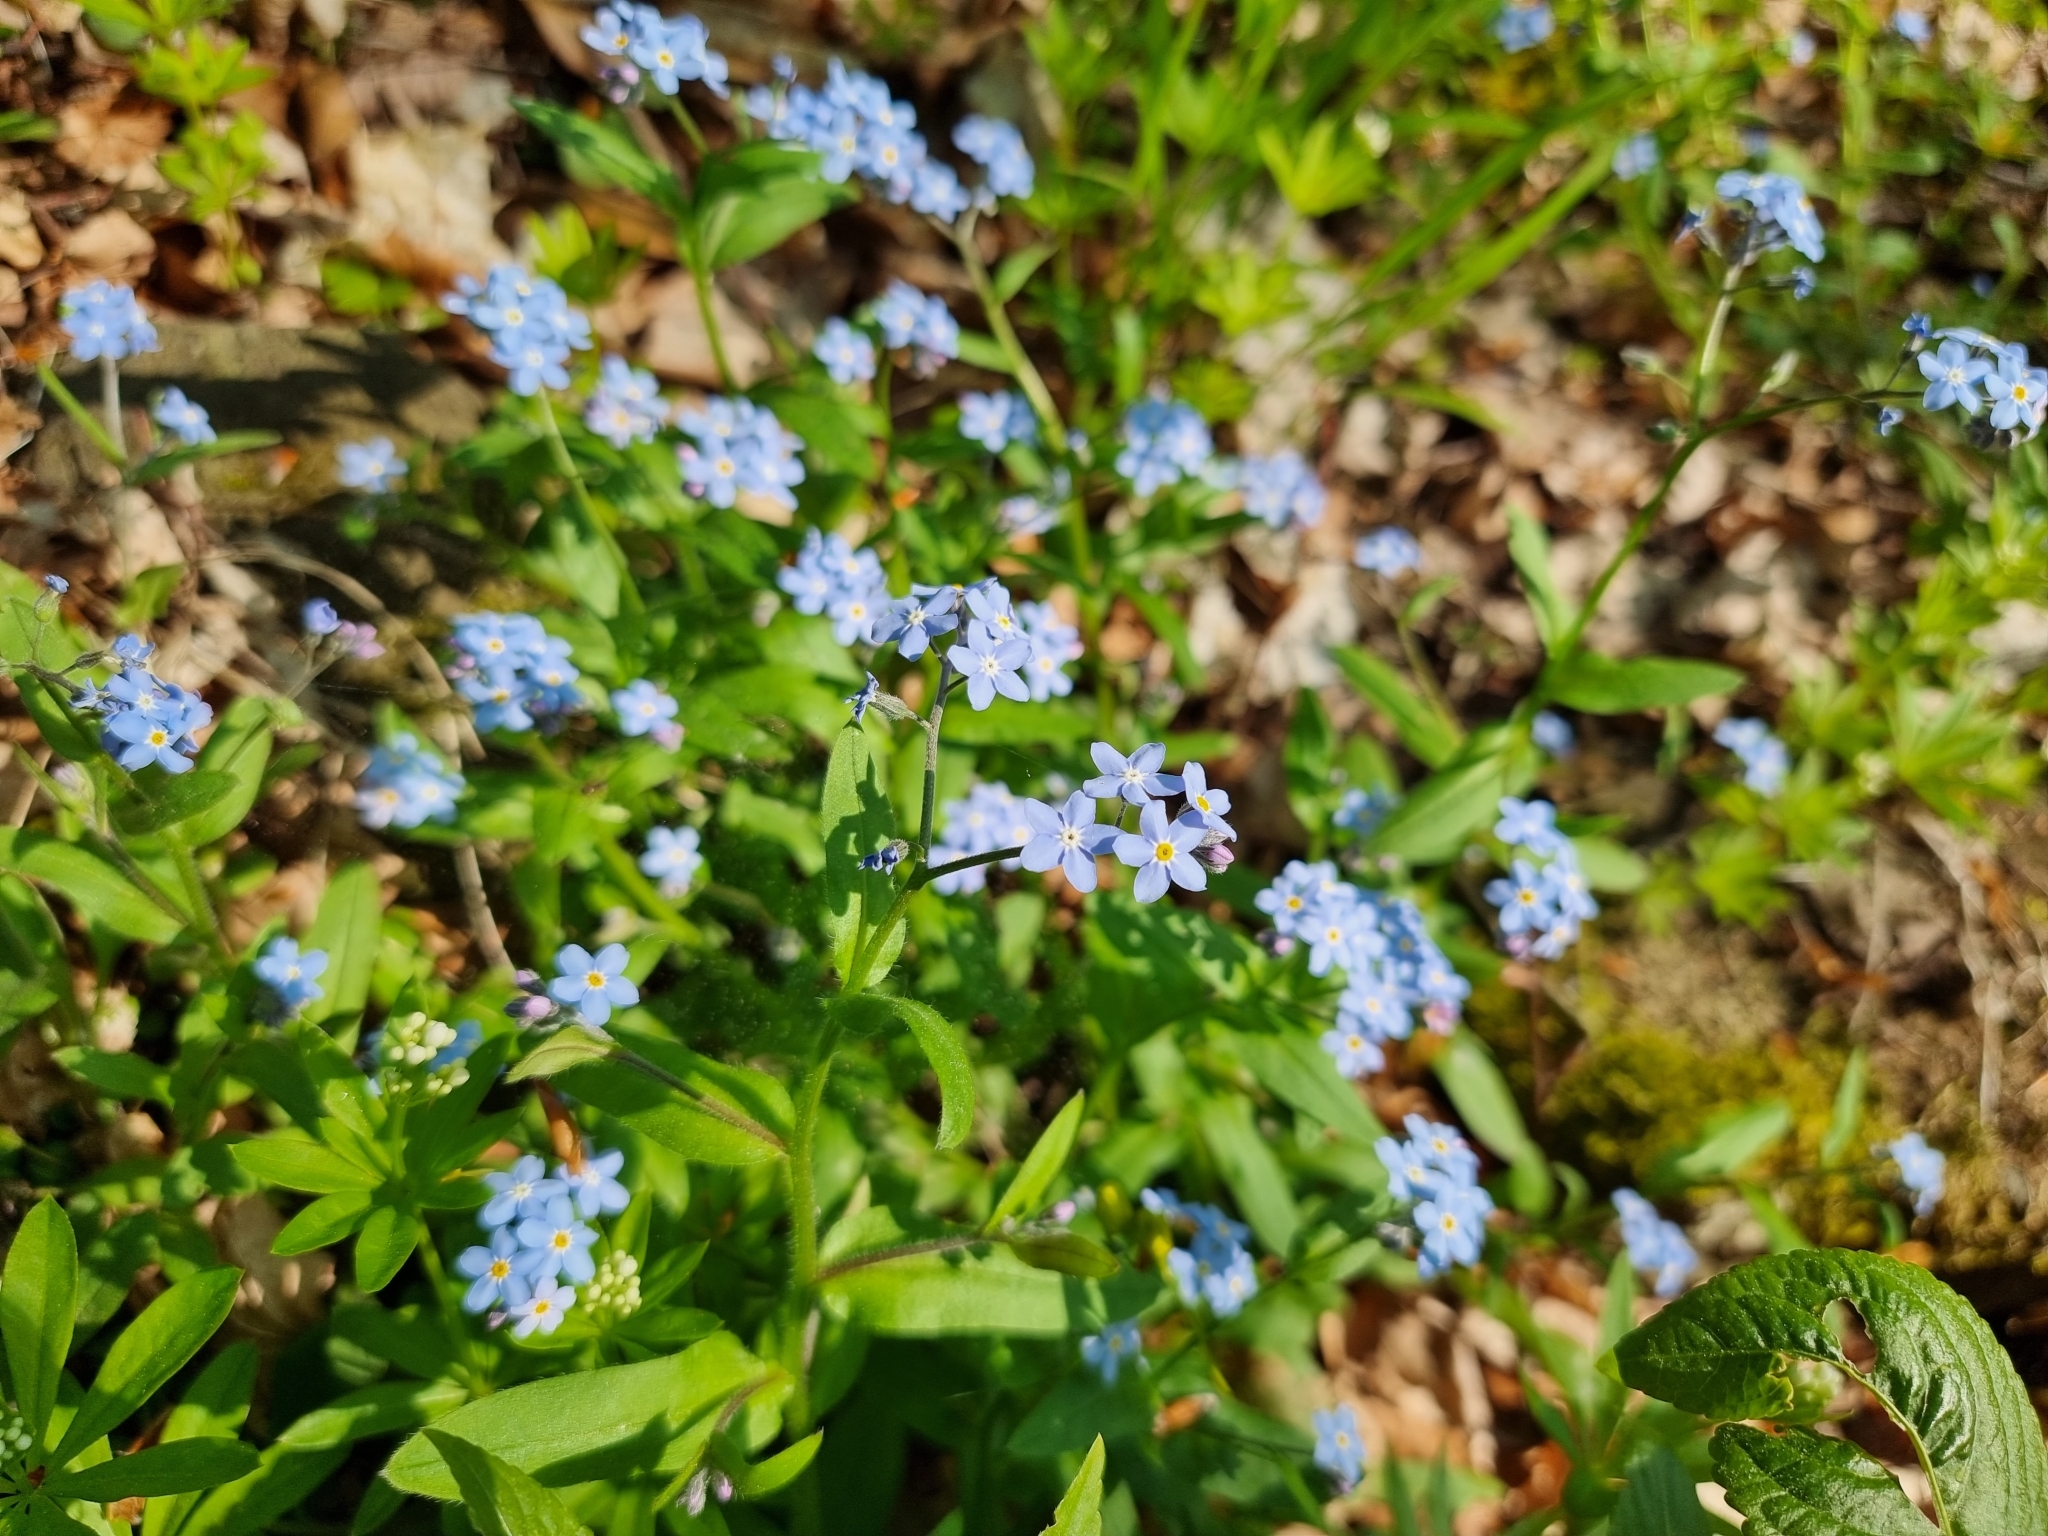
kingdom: Plantae
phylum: Tracheophyta
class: Magnoliopsida
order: Boraginales
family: Boraginaceae
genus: Myosotis
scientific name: Myosotis sylvatica
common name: Wood forget-me-not
